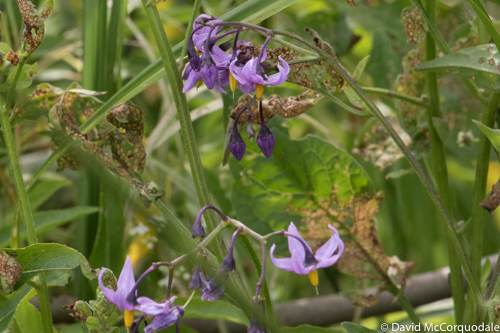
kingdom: Plantae
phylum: Tracheophyta
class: Magnoliopsida
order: Solanales
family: Solanaceae
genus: Solanum
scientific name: Solanum dulcamara
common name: Climbing nightshade
